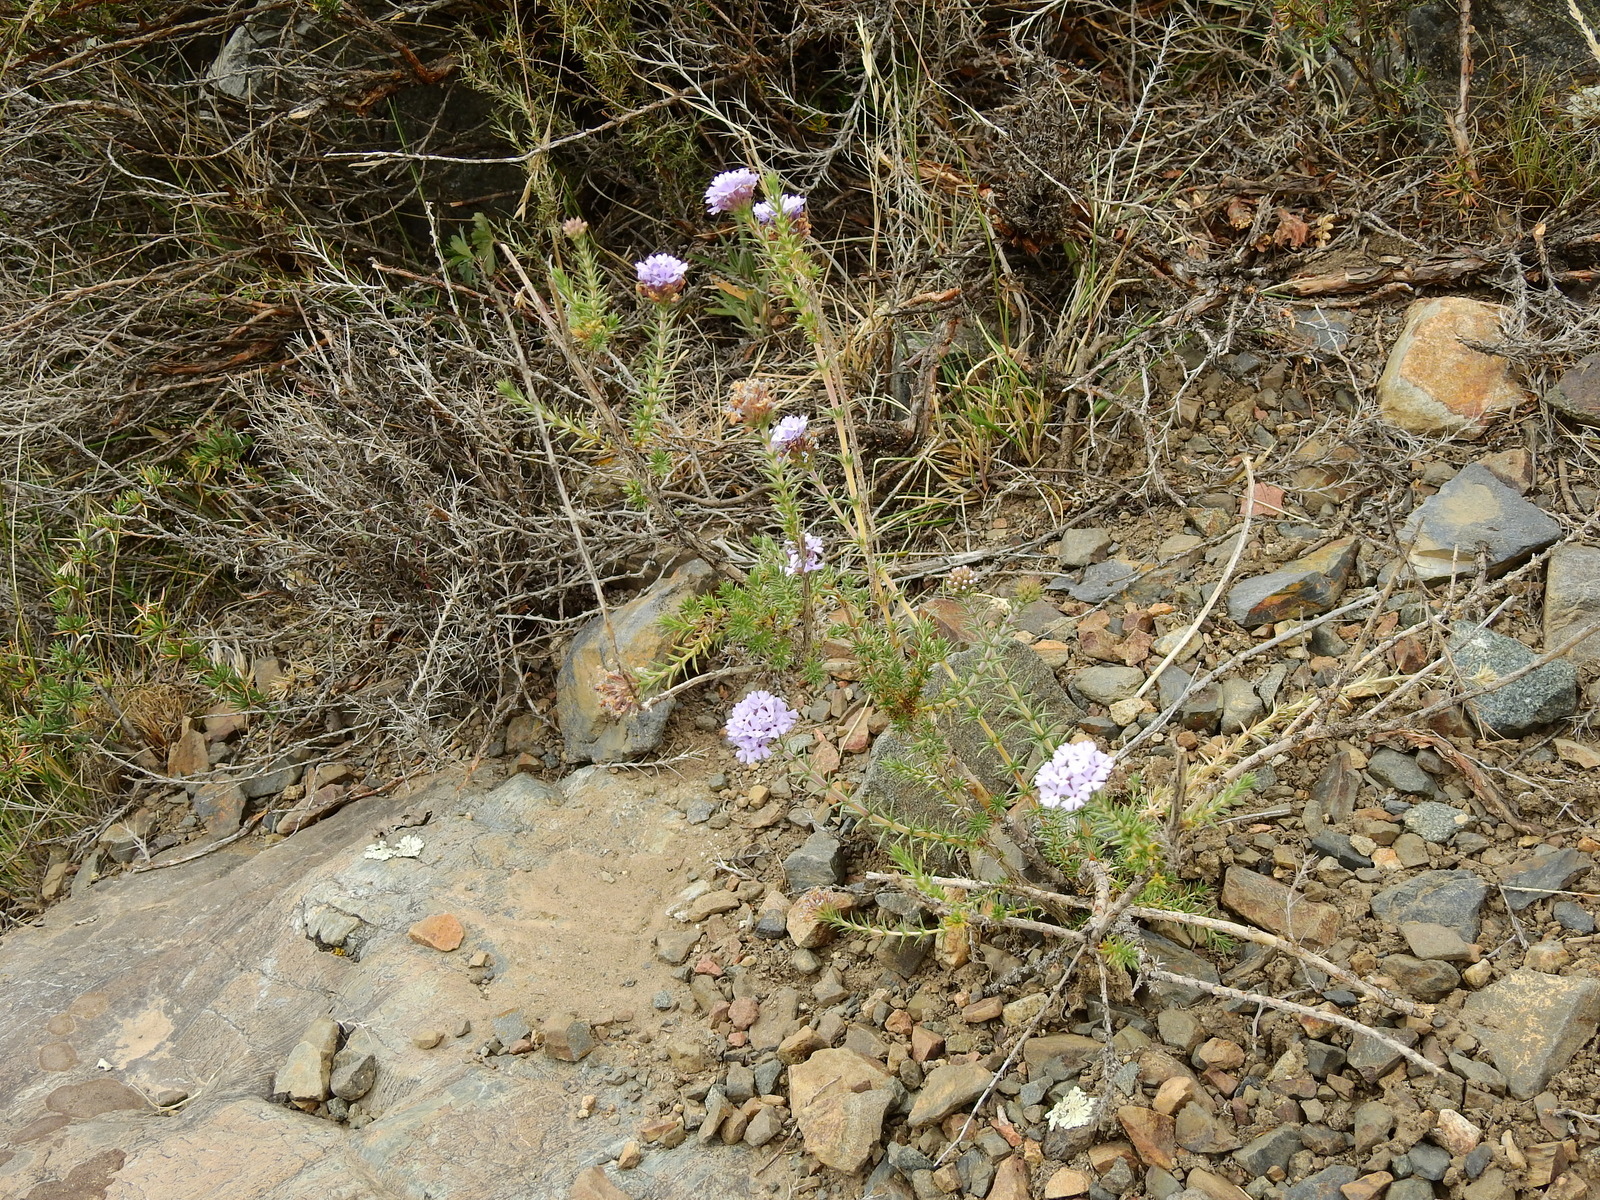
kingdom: Plantae
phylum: Tracheophyta
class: Magnoliopsida
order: Lamiales
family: Verbenaceae
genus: Junellia
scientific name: Junellia juniperina
